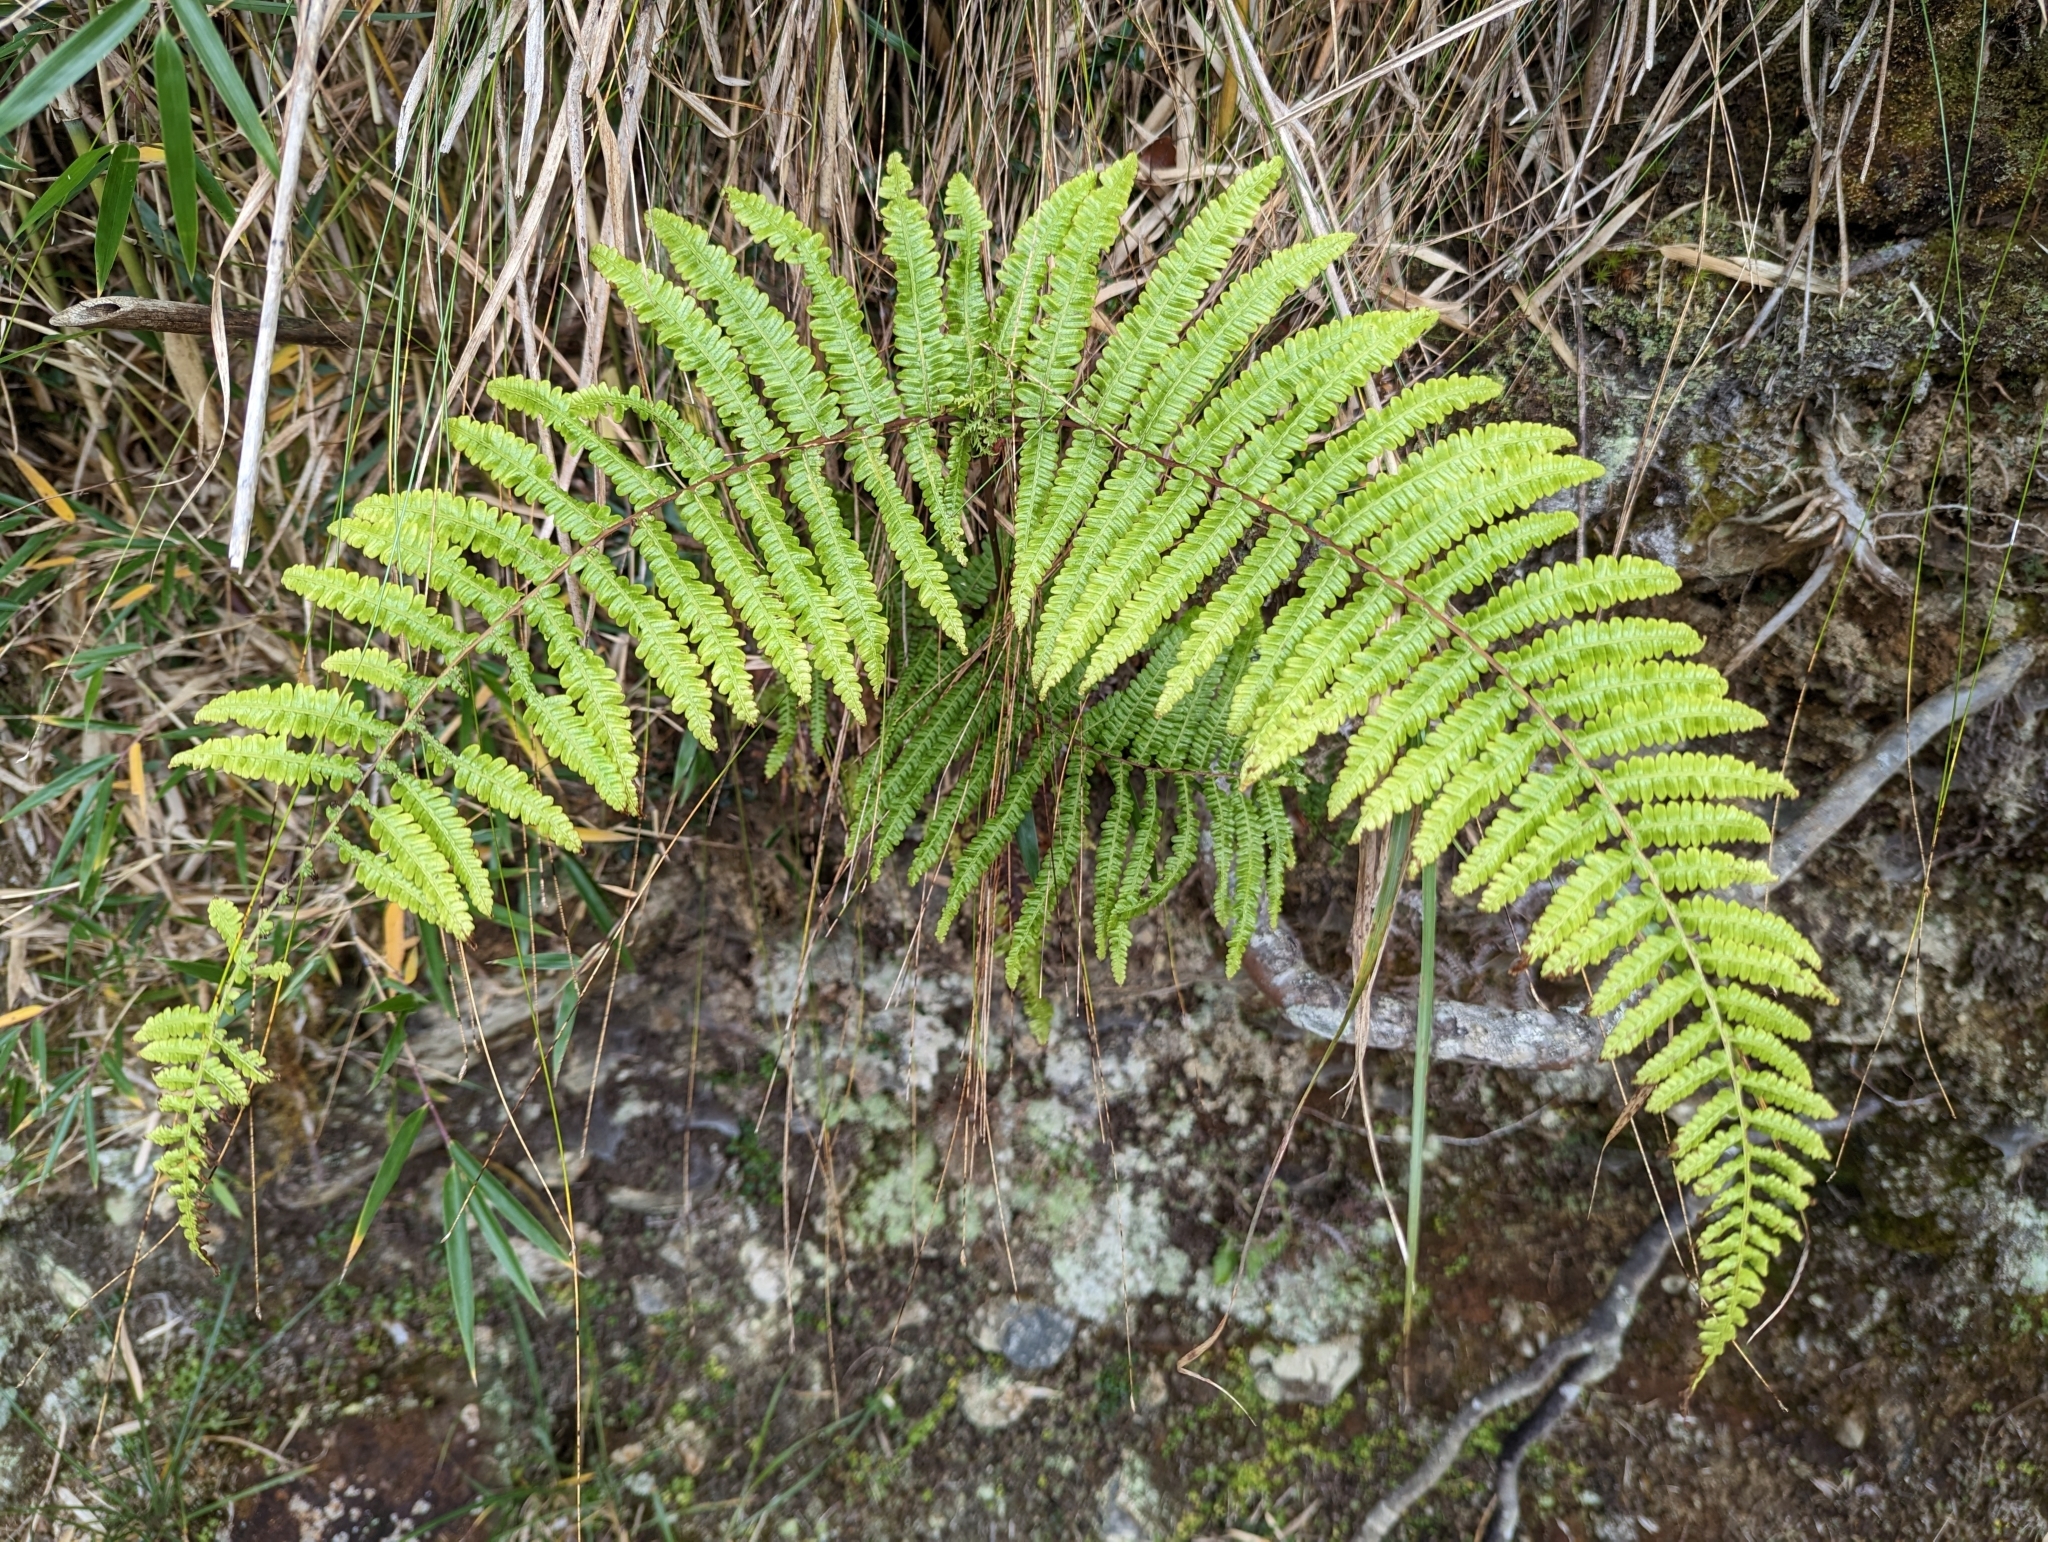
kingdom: Plantae
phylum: Tracheophyta
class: Polypodiopsida
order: Gleicheniales
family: Gleicheniaceae
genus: Diplopterygium
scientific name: Diplopterygium glaucum
